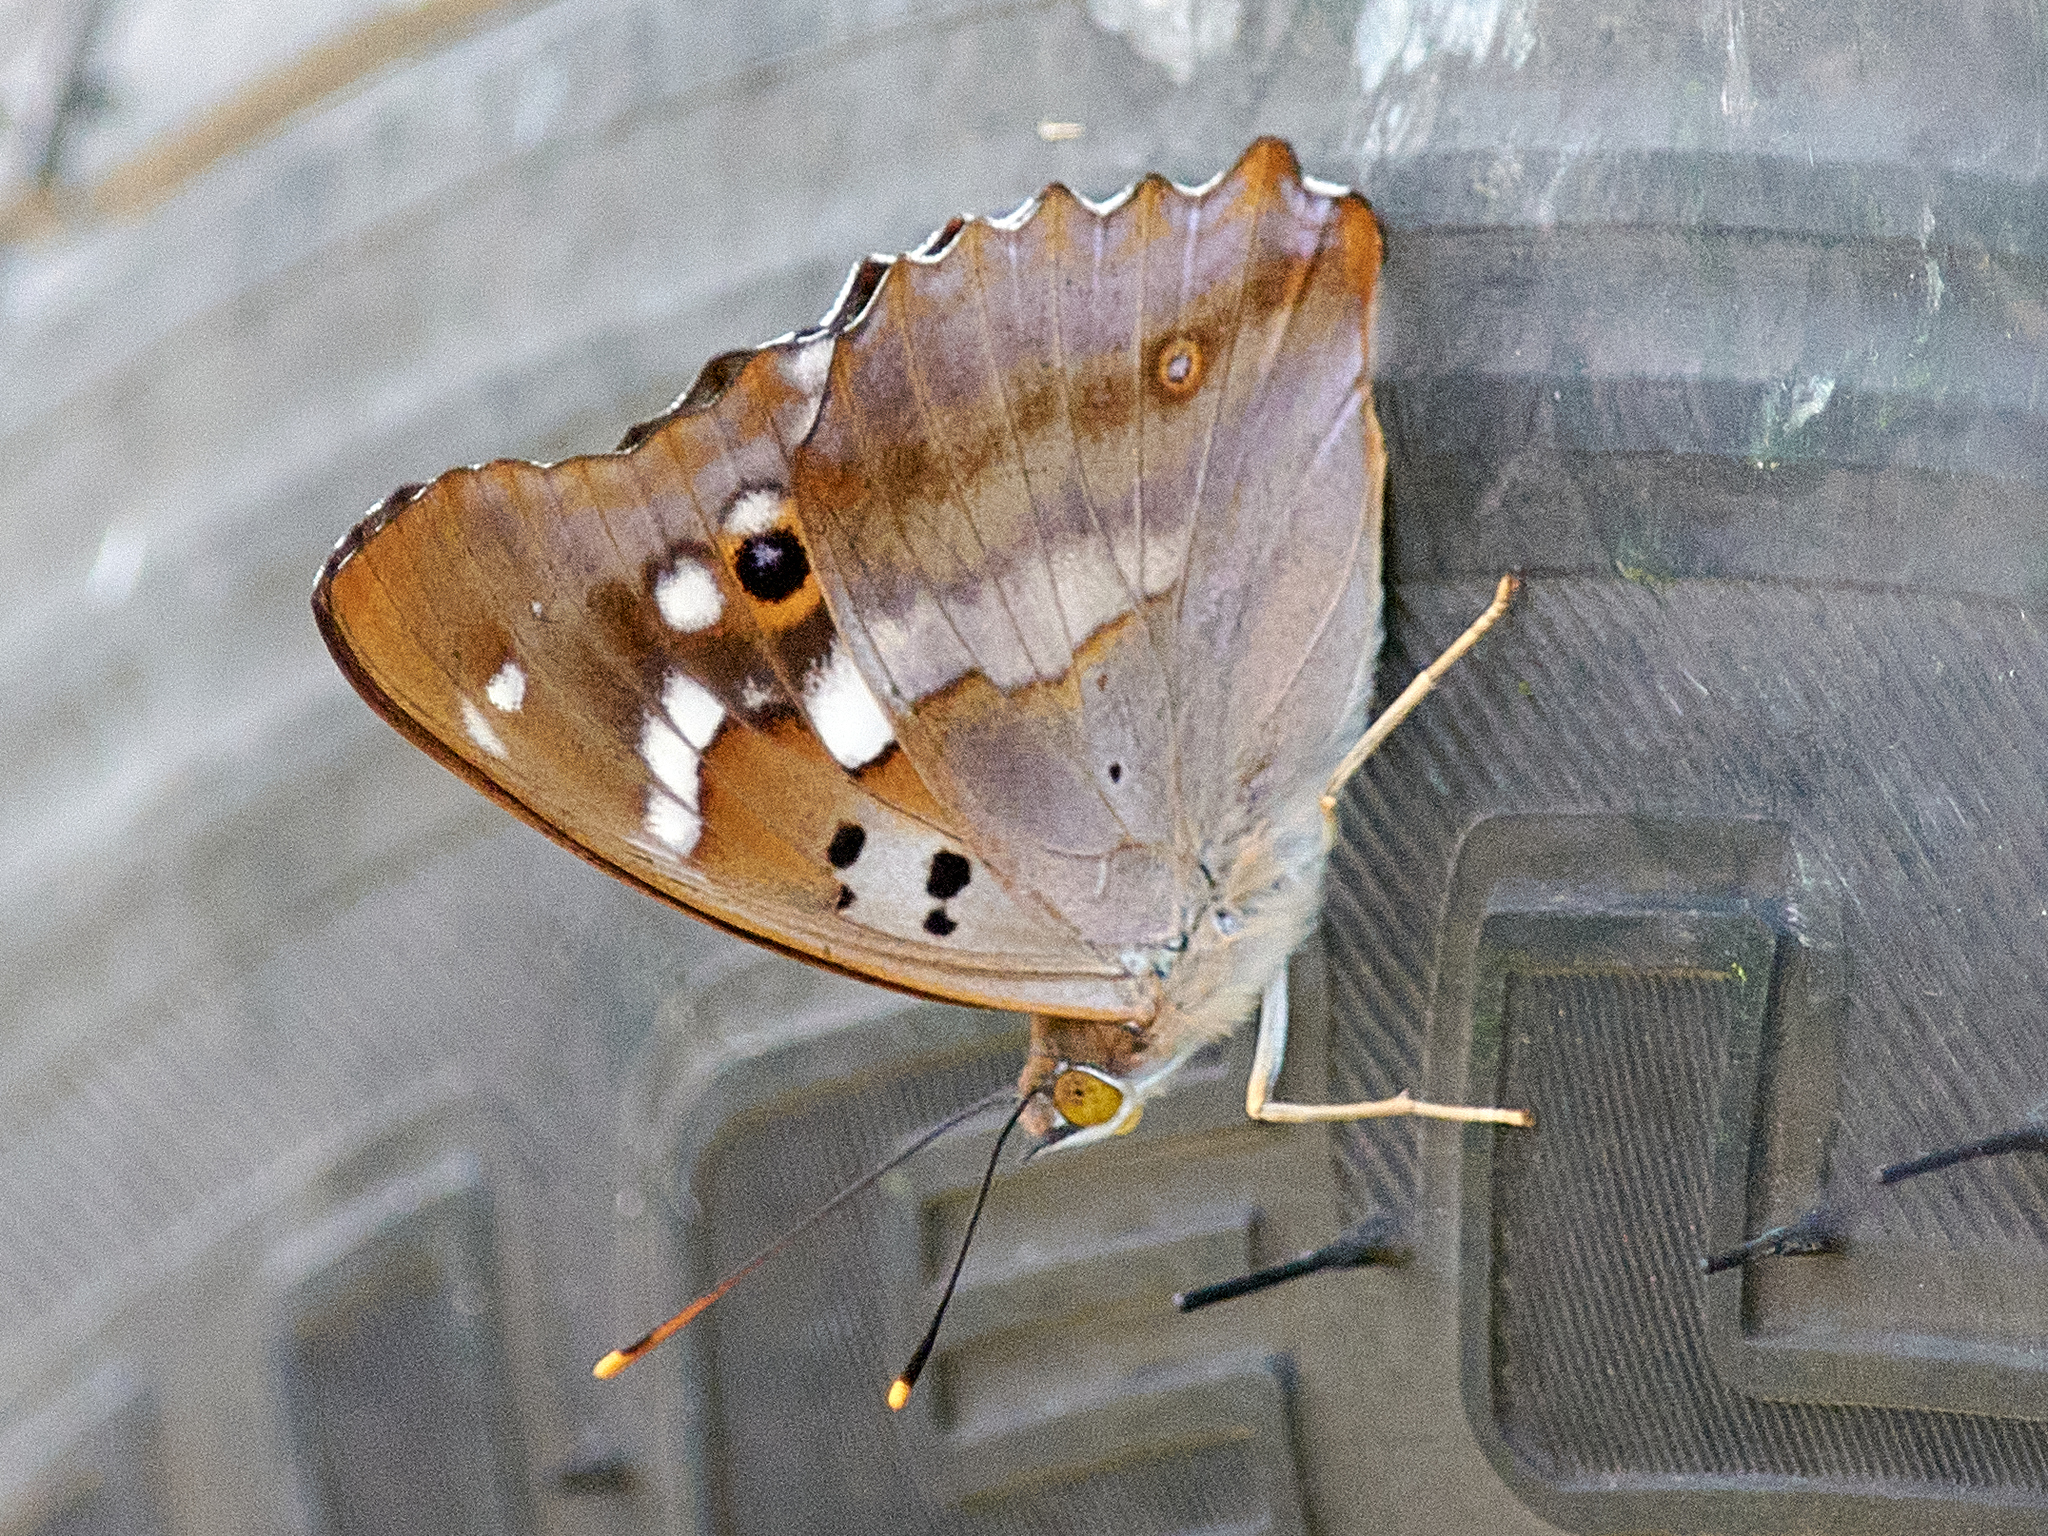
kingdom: Animalia
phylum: Arthropoda
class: Insecta
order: Lepidoptera
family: Nymphalidae
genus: Apatura
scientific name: Apatura ilia
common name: Lesser purple emperor
